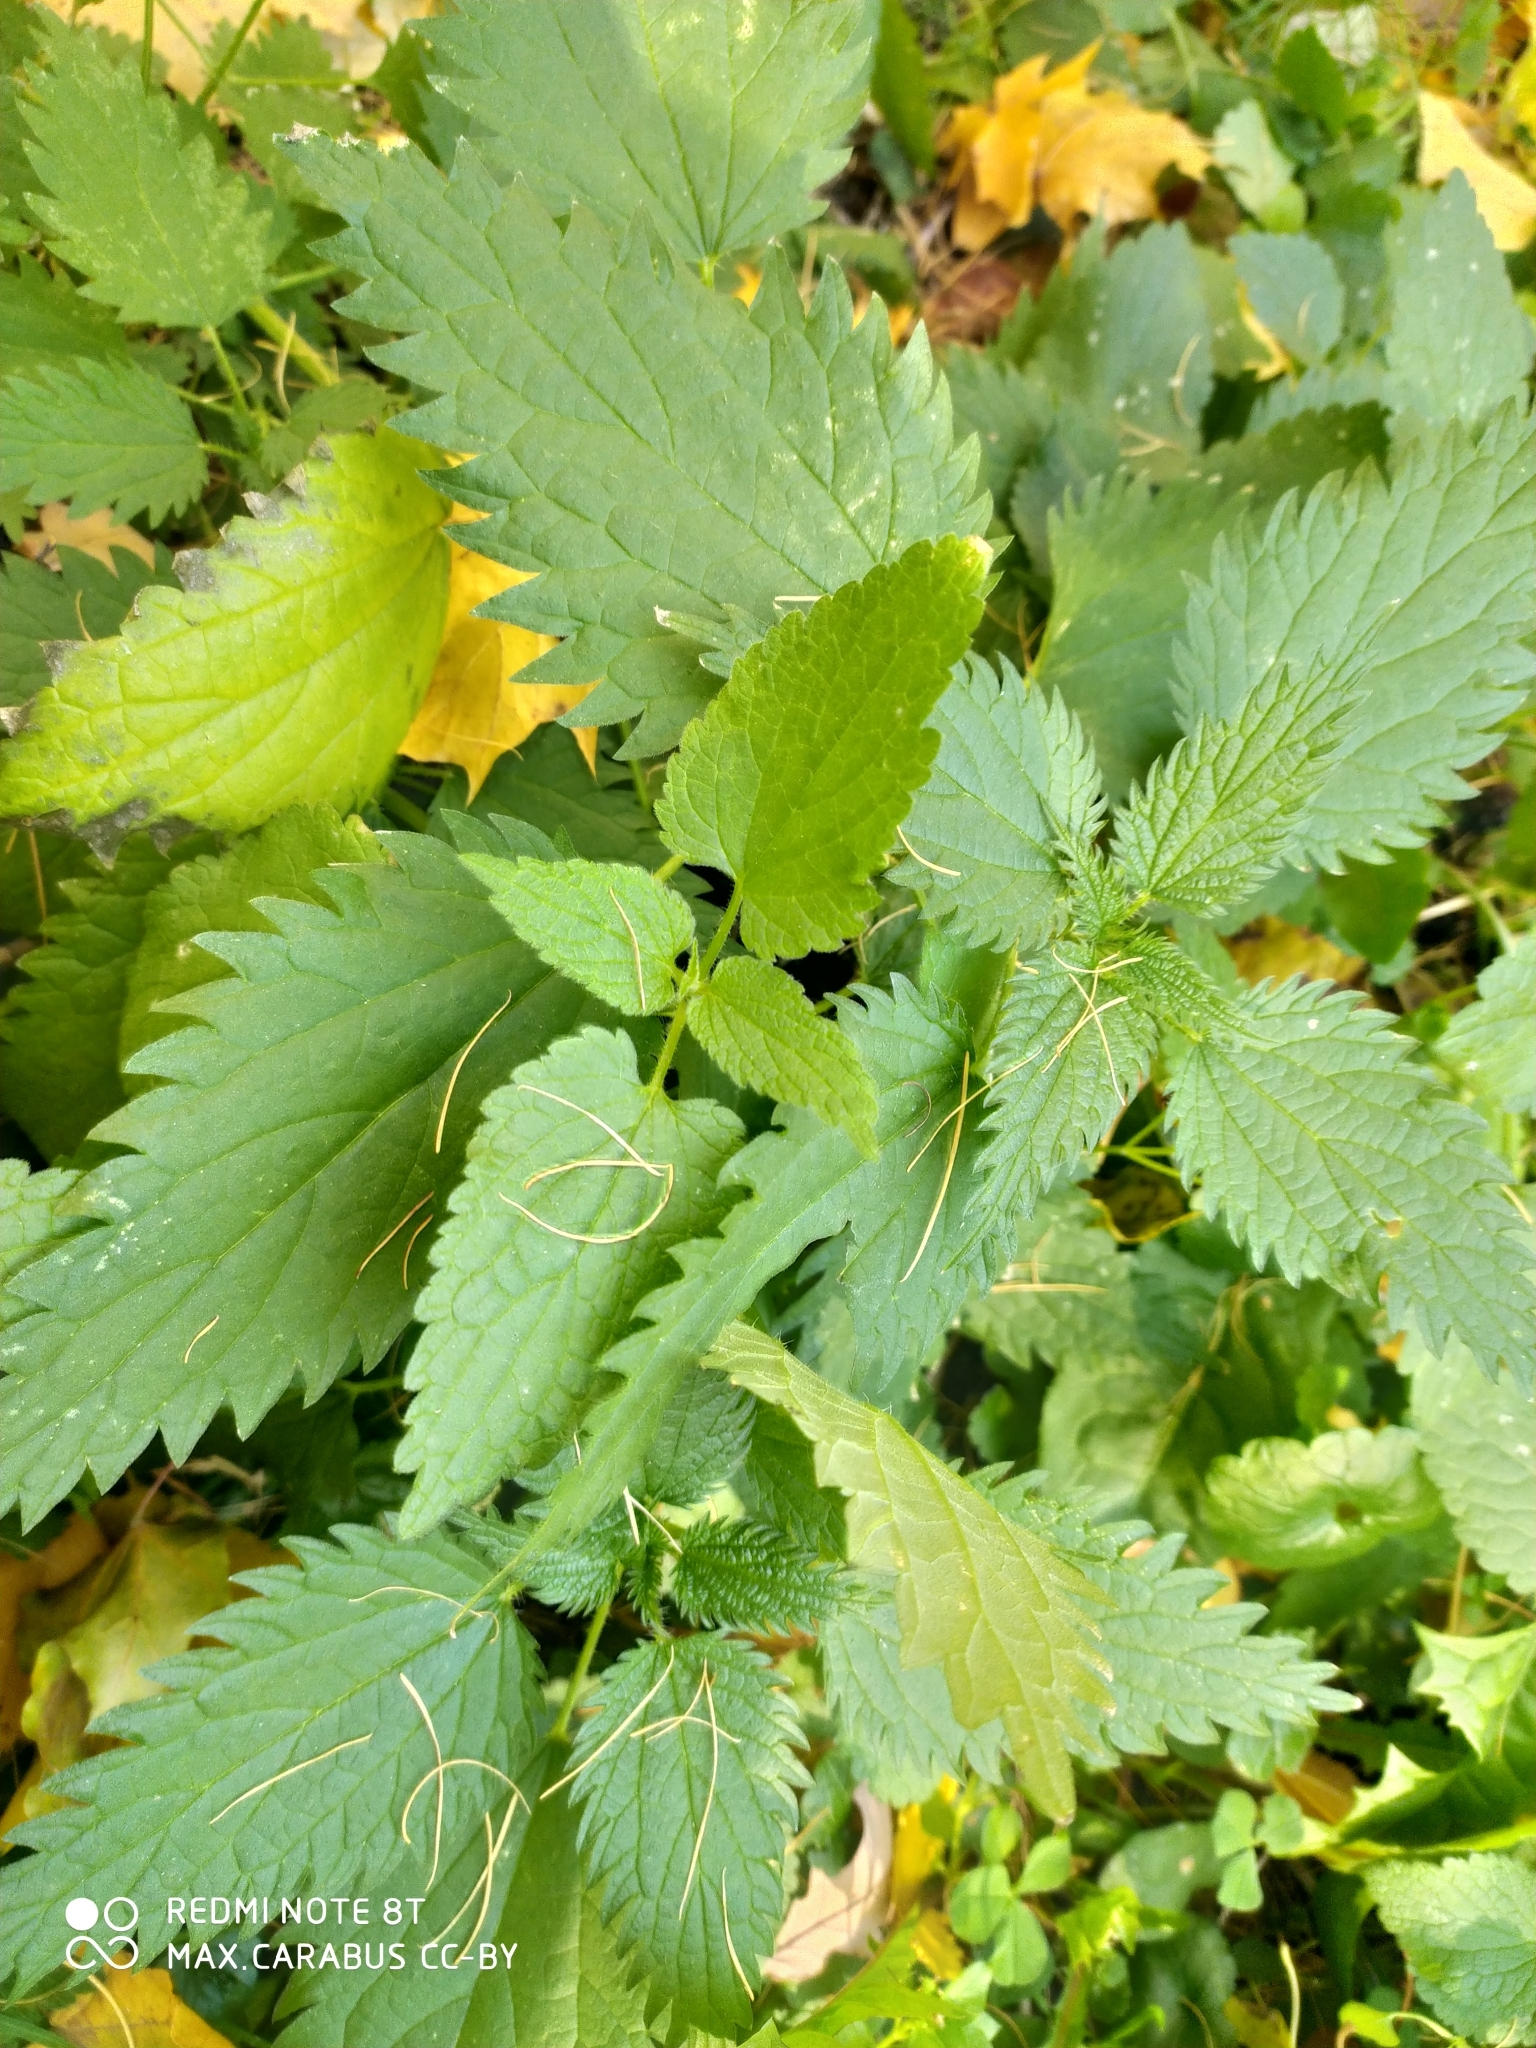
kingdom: Plantae
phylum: Tracheophyta
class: Magnoliopsida
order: Rosales
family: Urticaceae
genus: Urtica
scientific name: Urtica dioica
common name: Common nettle
